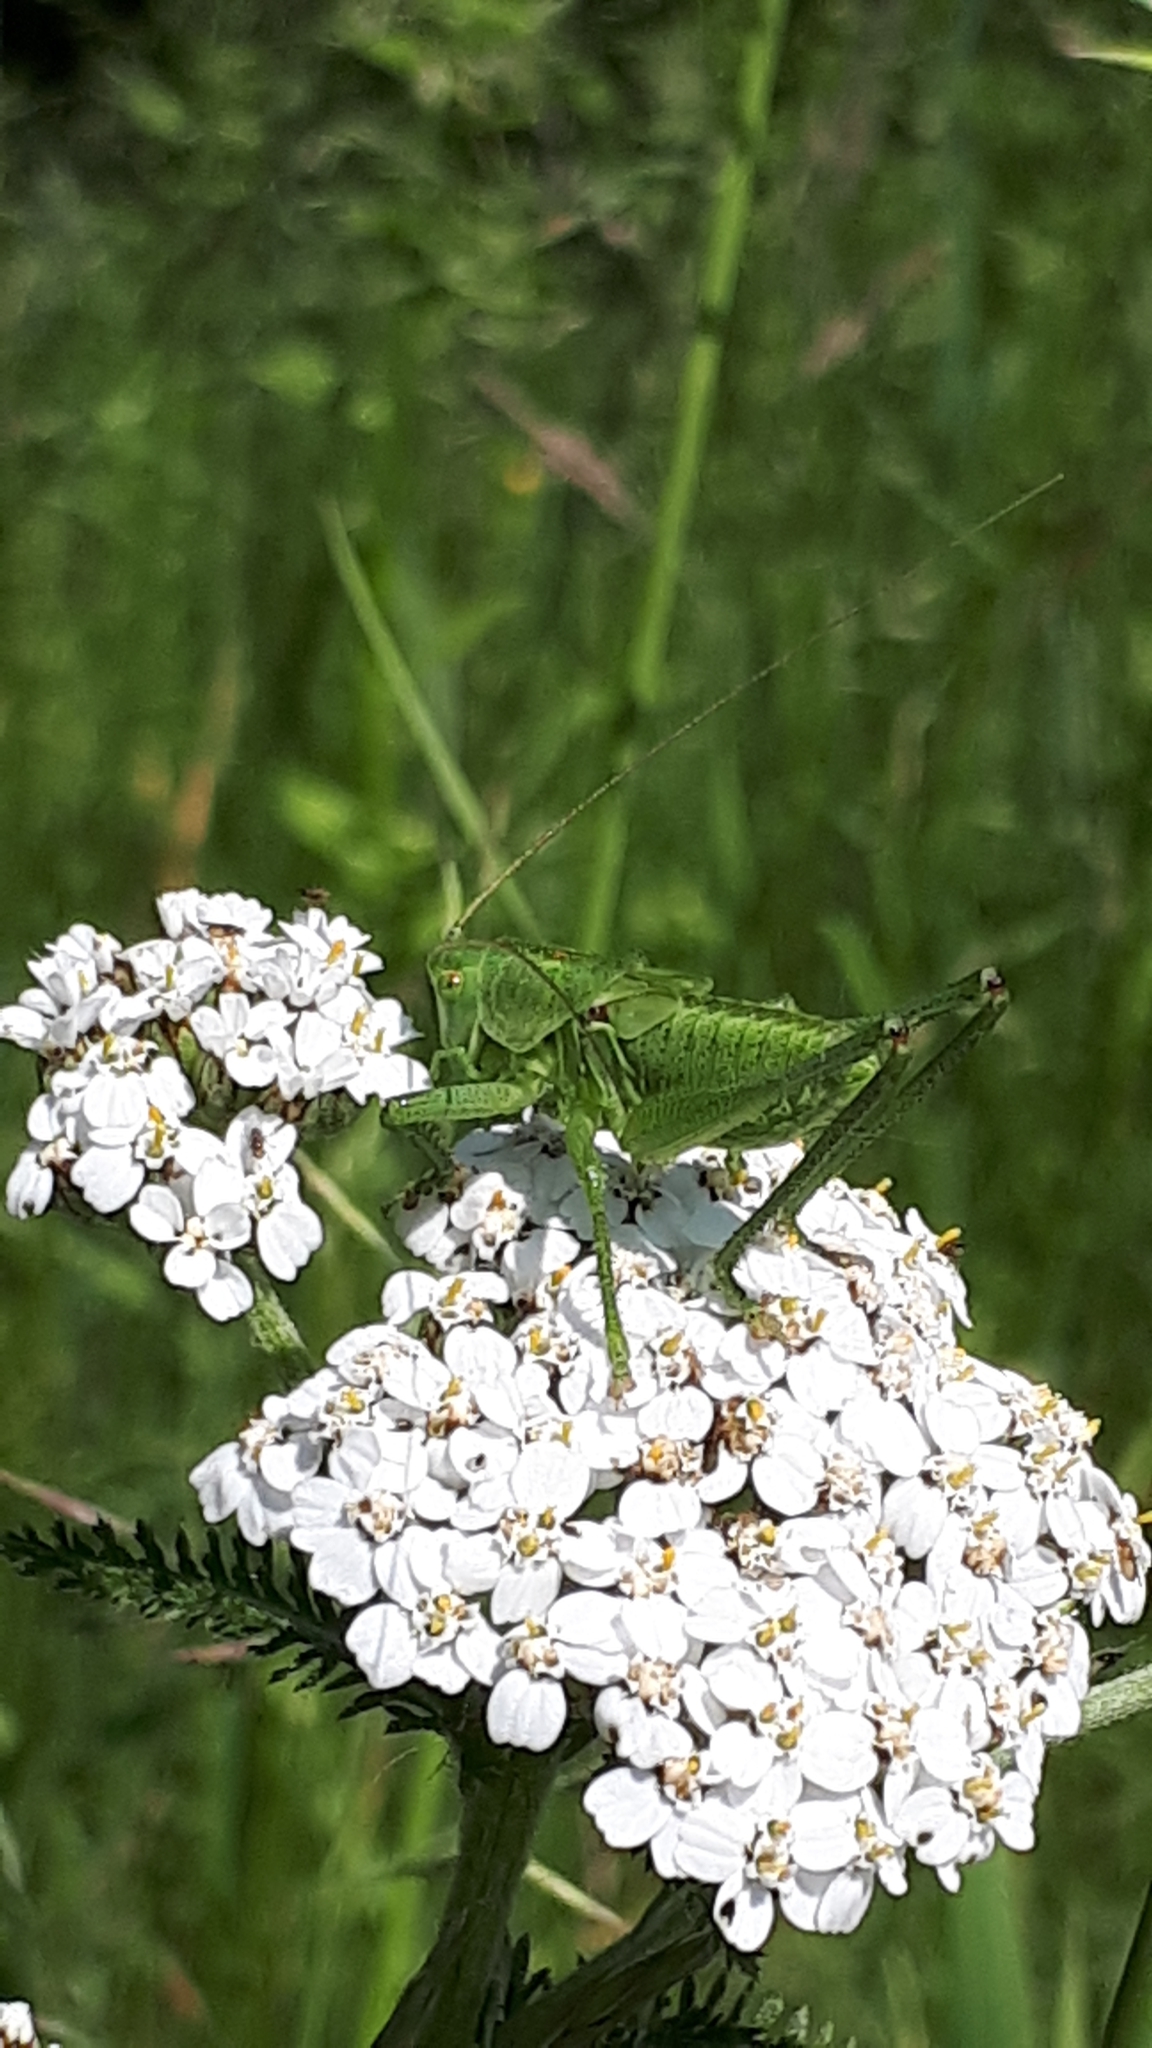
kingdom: Animalia
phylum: Arthropoda
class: Insecta
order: Orthoptera
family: Tettigoniidae
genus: Tettigonia
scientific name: Tettigonia viridissima
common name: Great green bush-cricket
